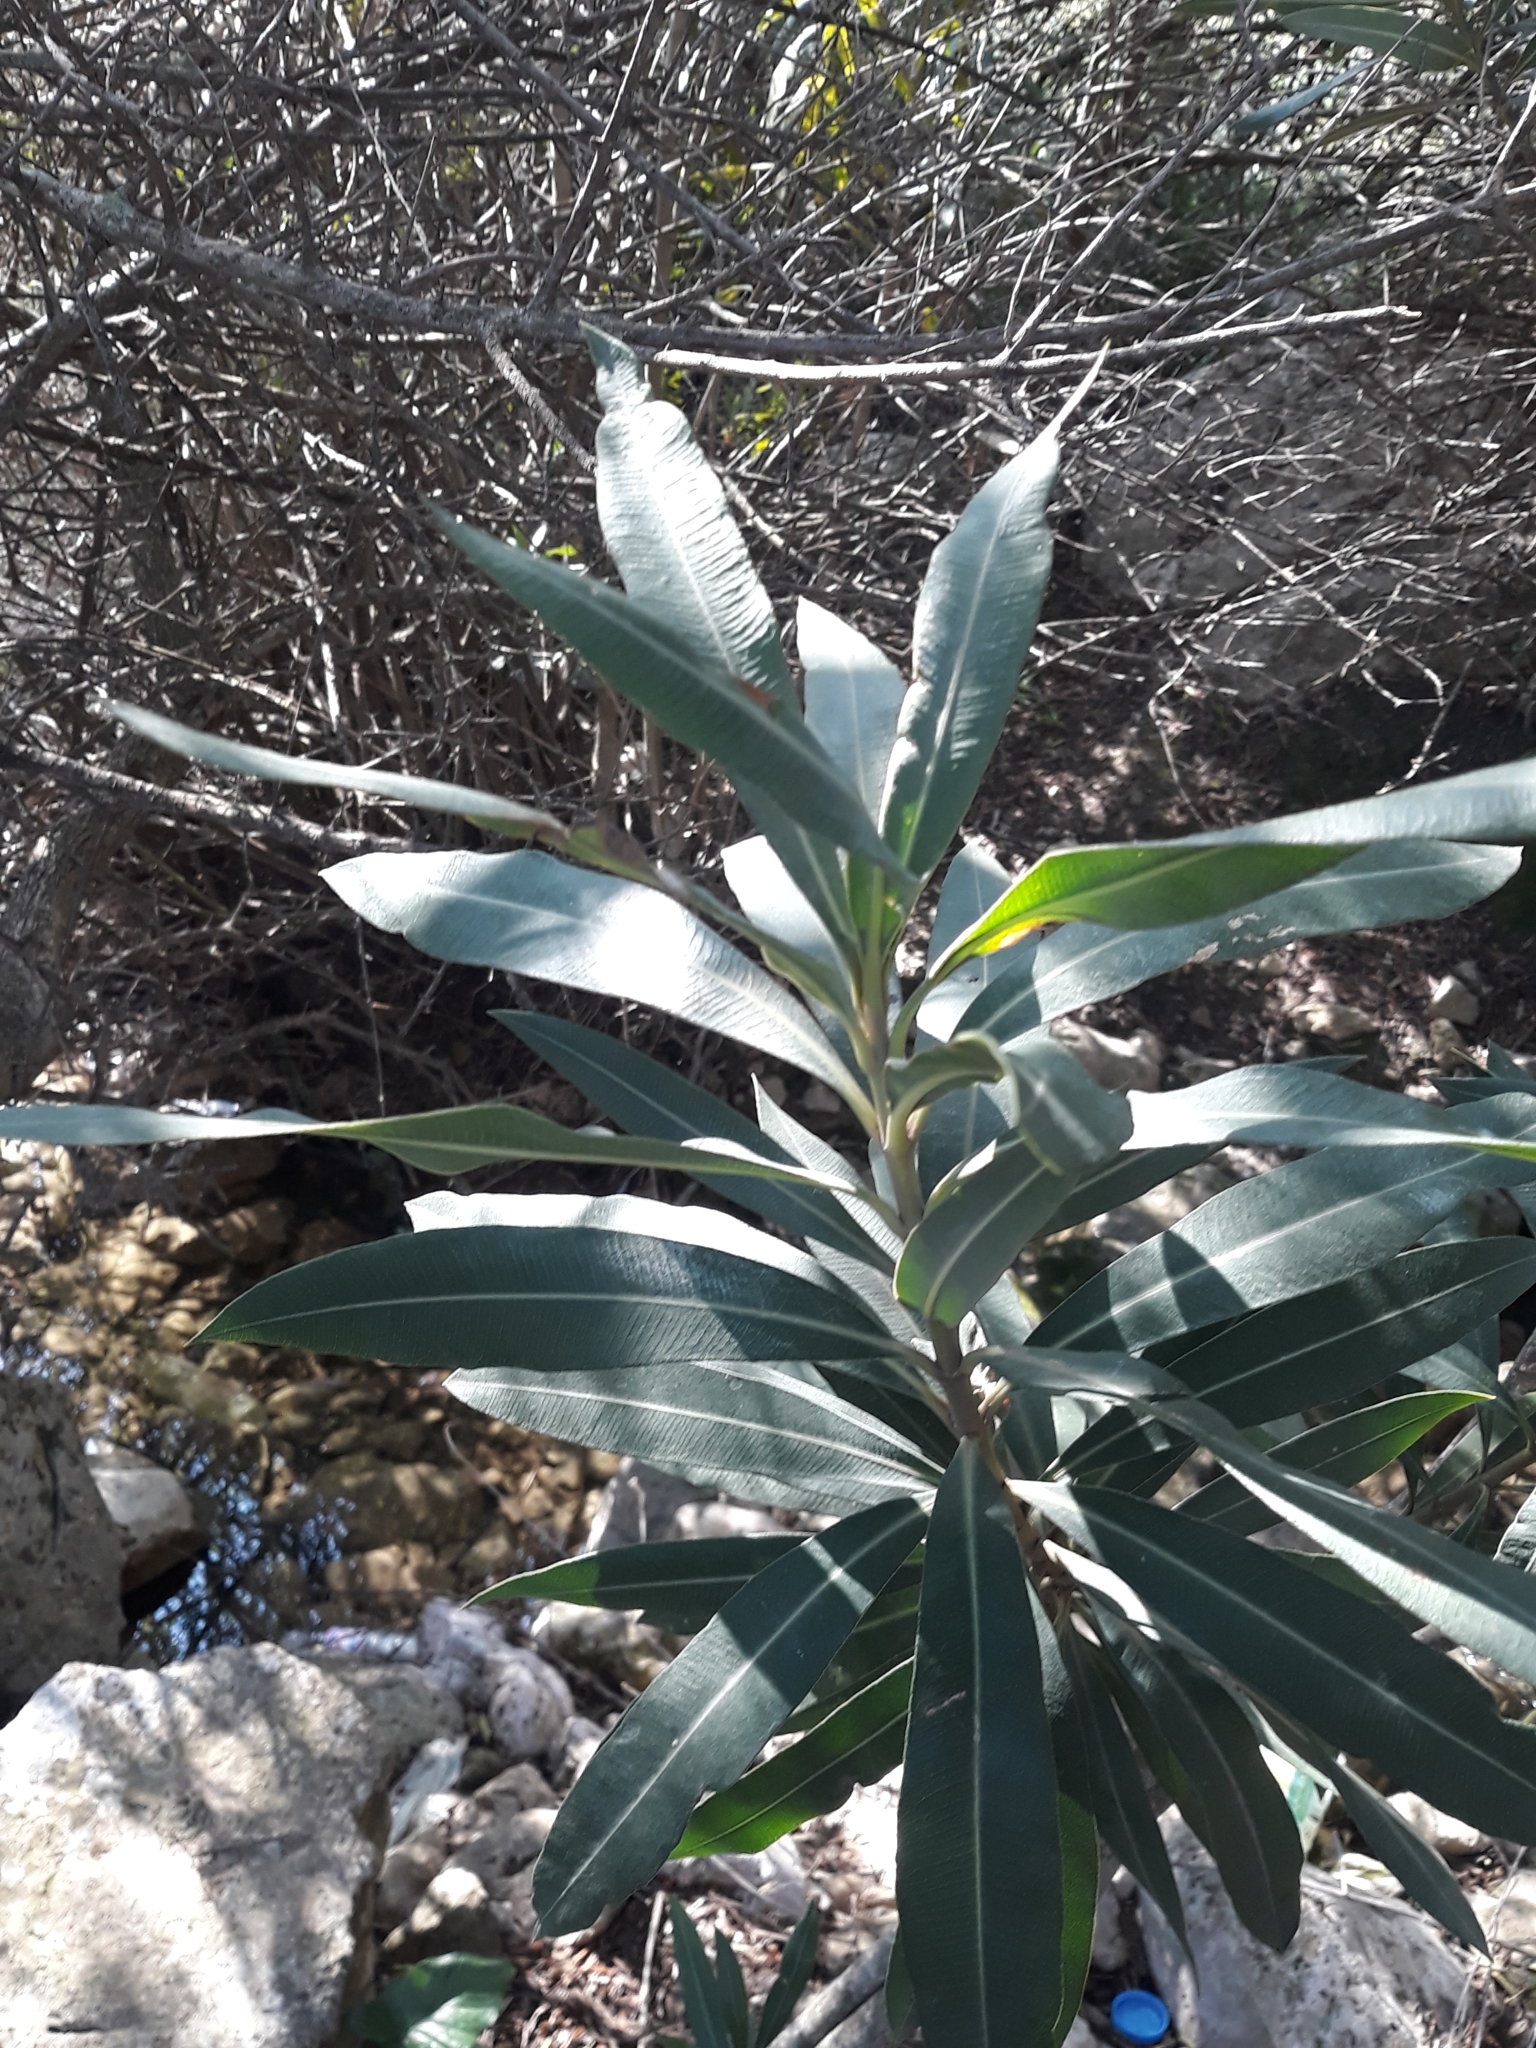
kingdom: Plantae
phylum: Tracheophyta
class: Magnoliopsida
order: Gentianales
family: Apocynaceae
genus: Nerium
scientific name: Nerium oleander
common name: Oleander
